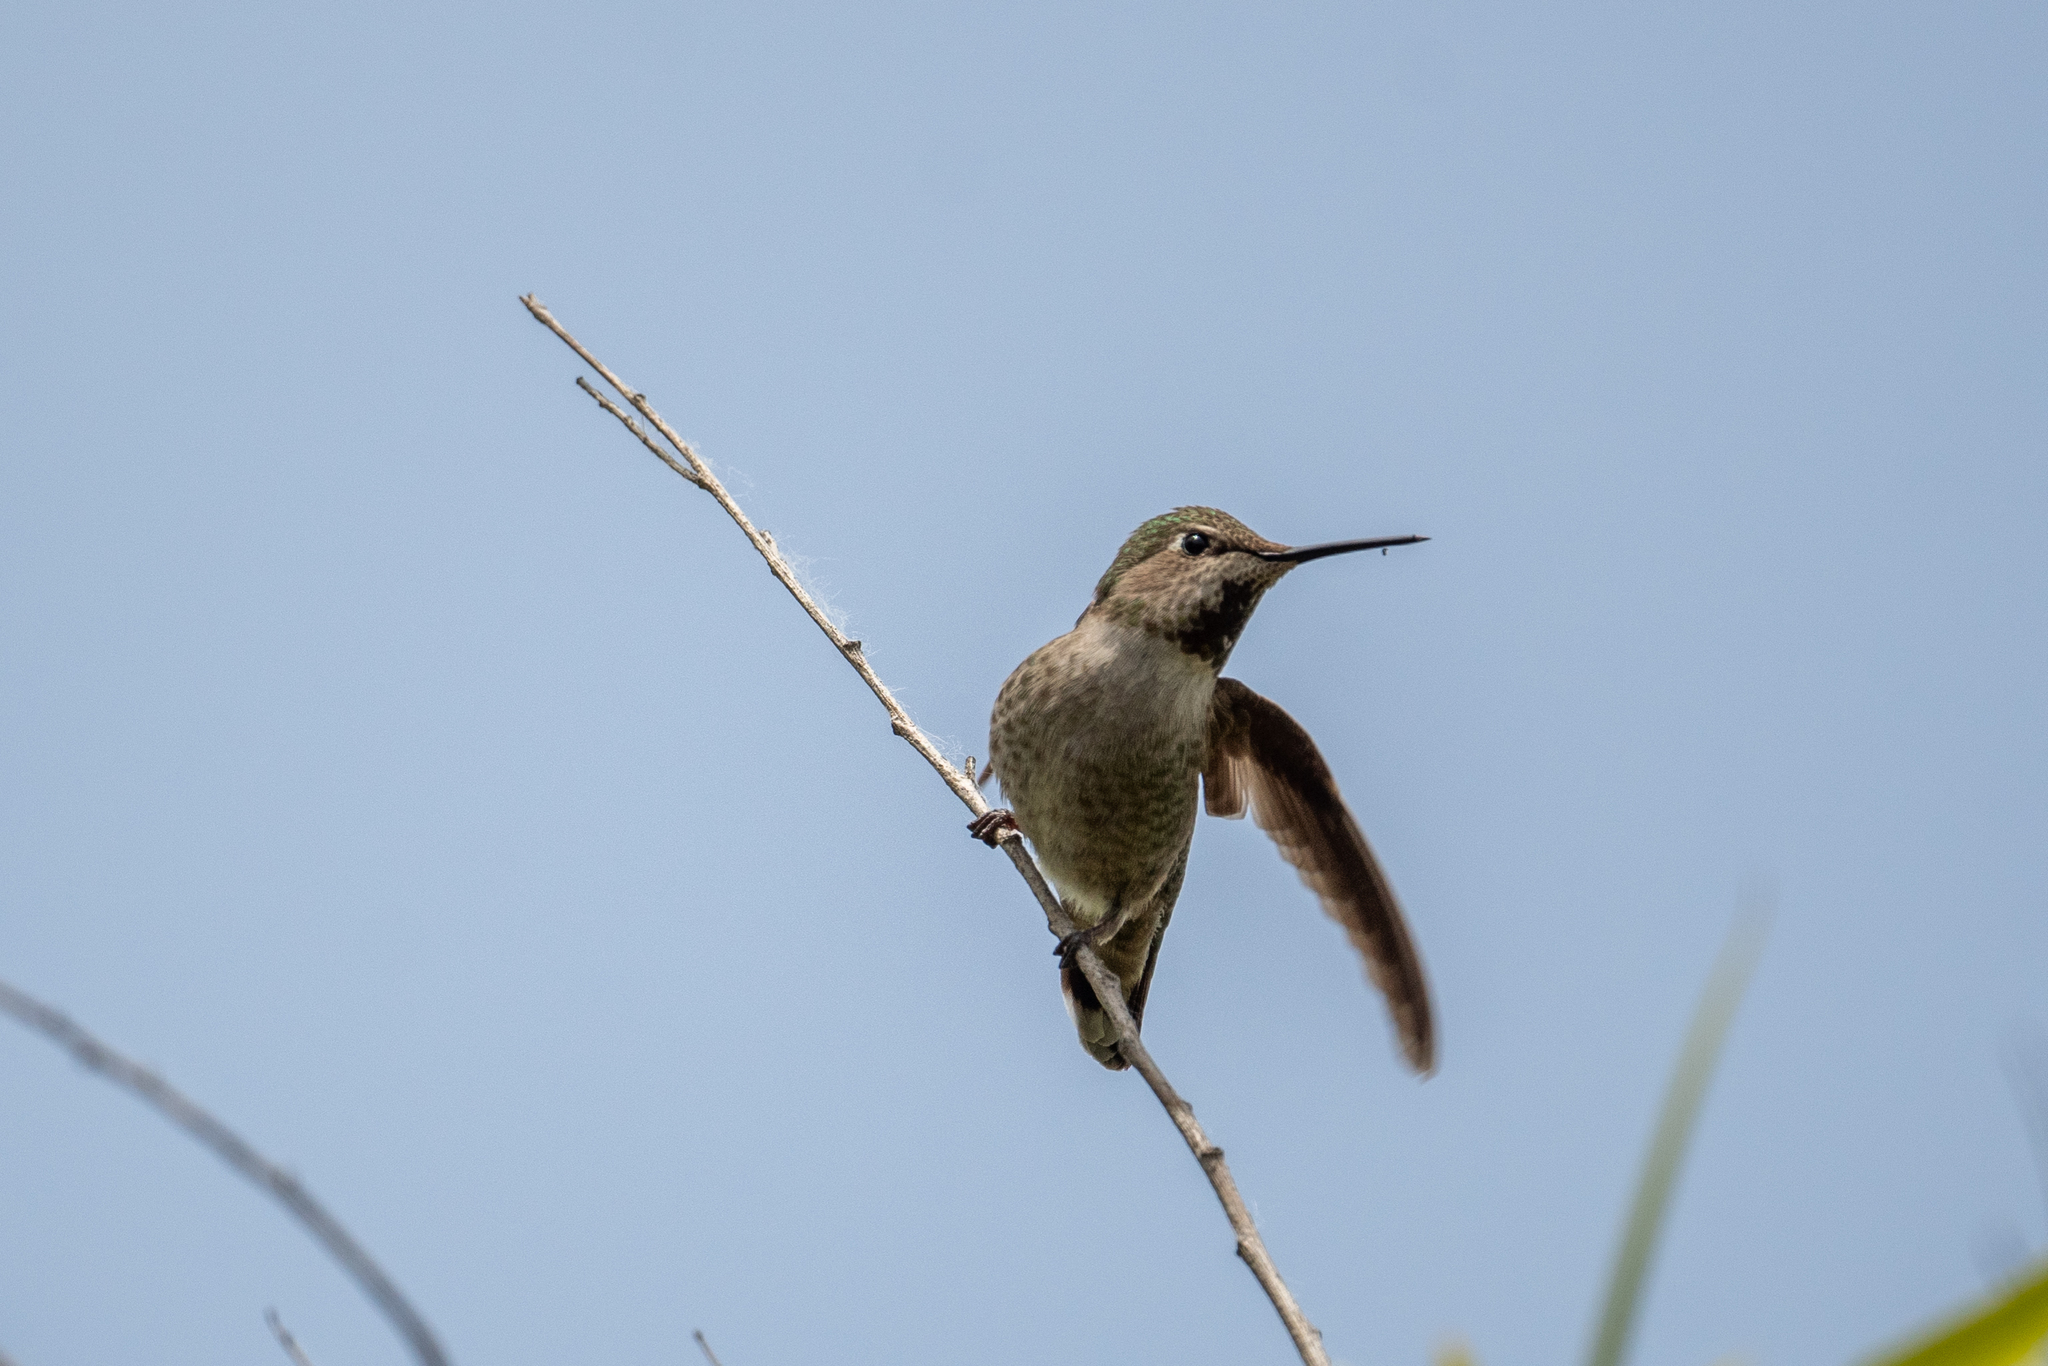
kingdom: Animalia
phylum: Chordata
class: Aves
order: Apodiformes
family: Trochilidae
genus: Calypte
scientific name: Calypte anna
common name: Anna's hummingbird
